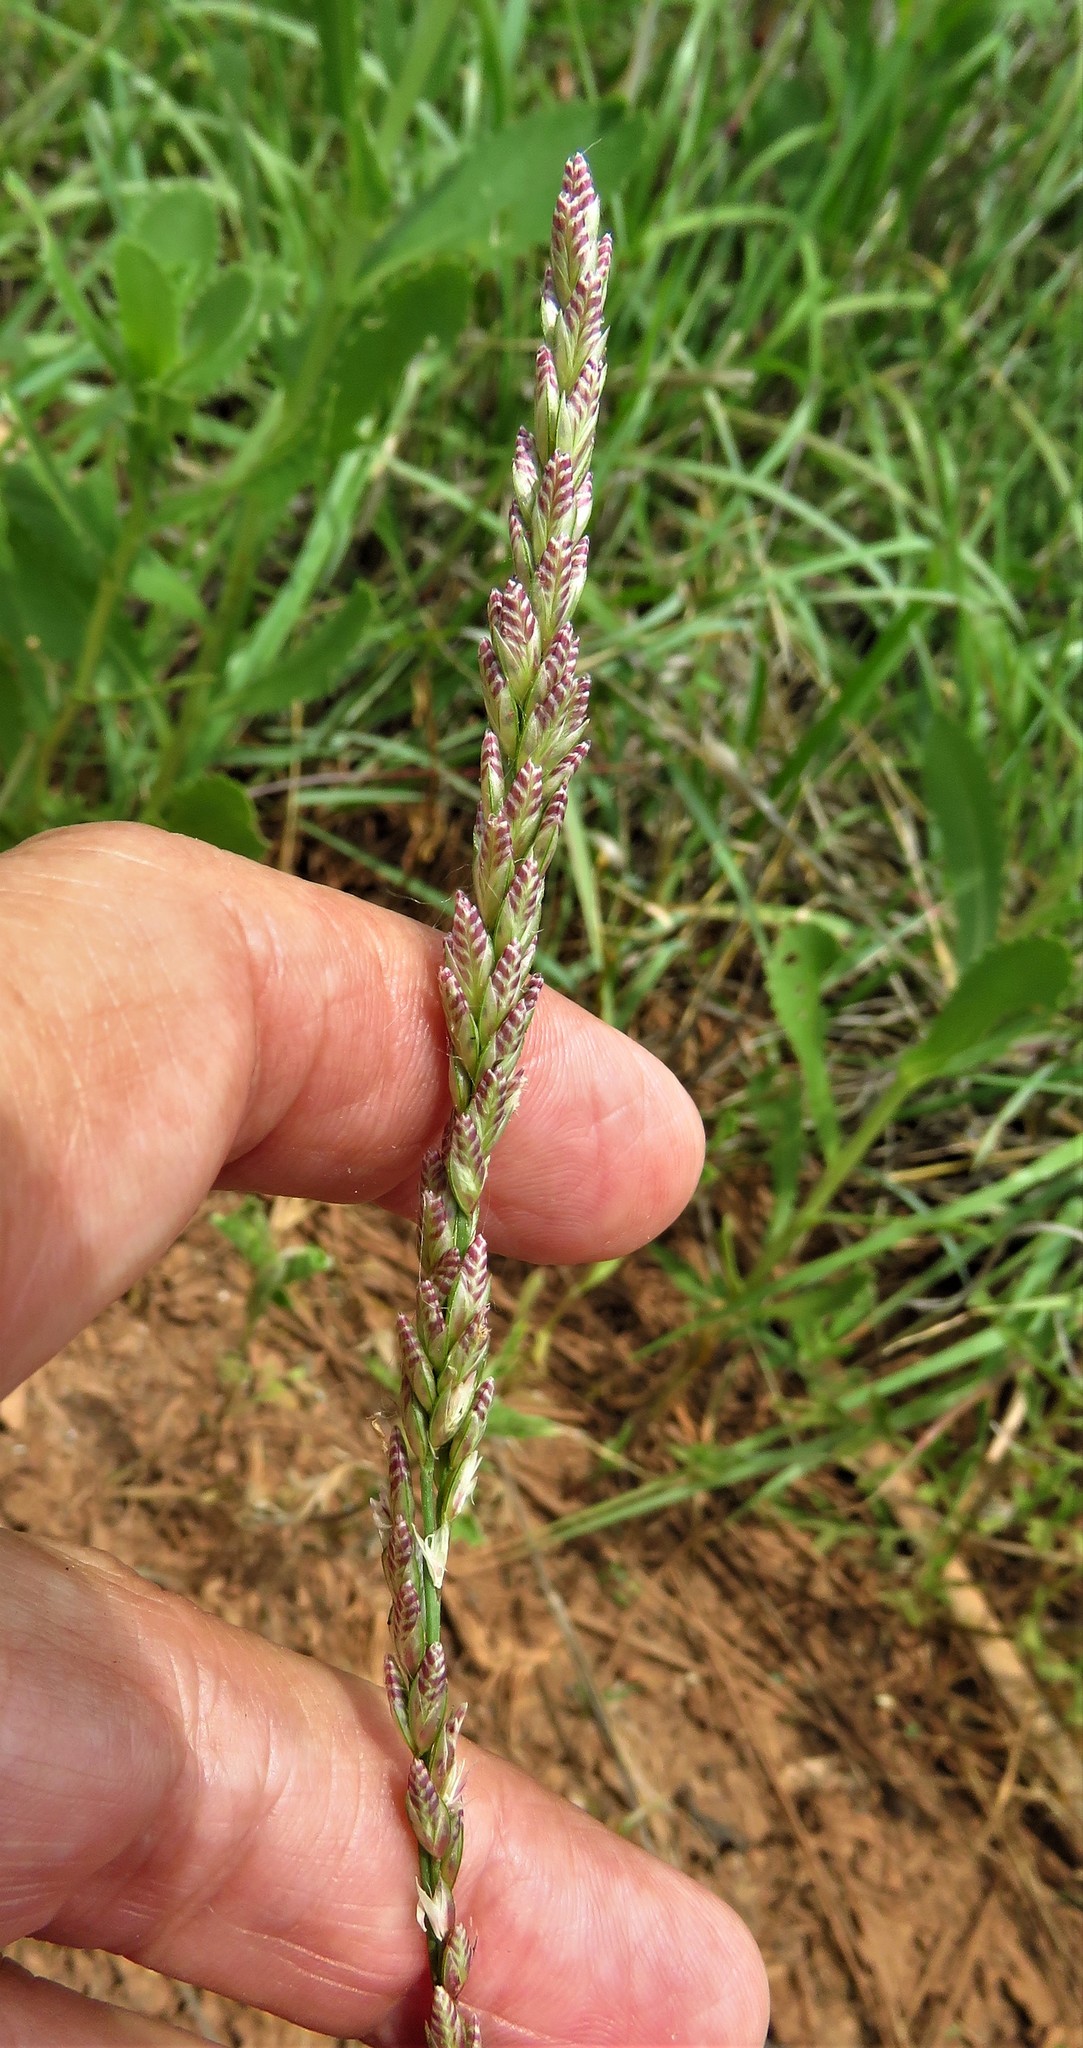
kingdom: Plantae
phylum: Tracheophyta
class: Liliopsida
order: Poales
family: Poaceae
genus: Tridens
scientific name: Tridens albescens
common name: White tridens
